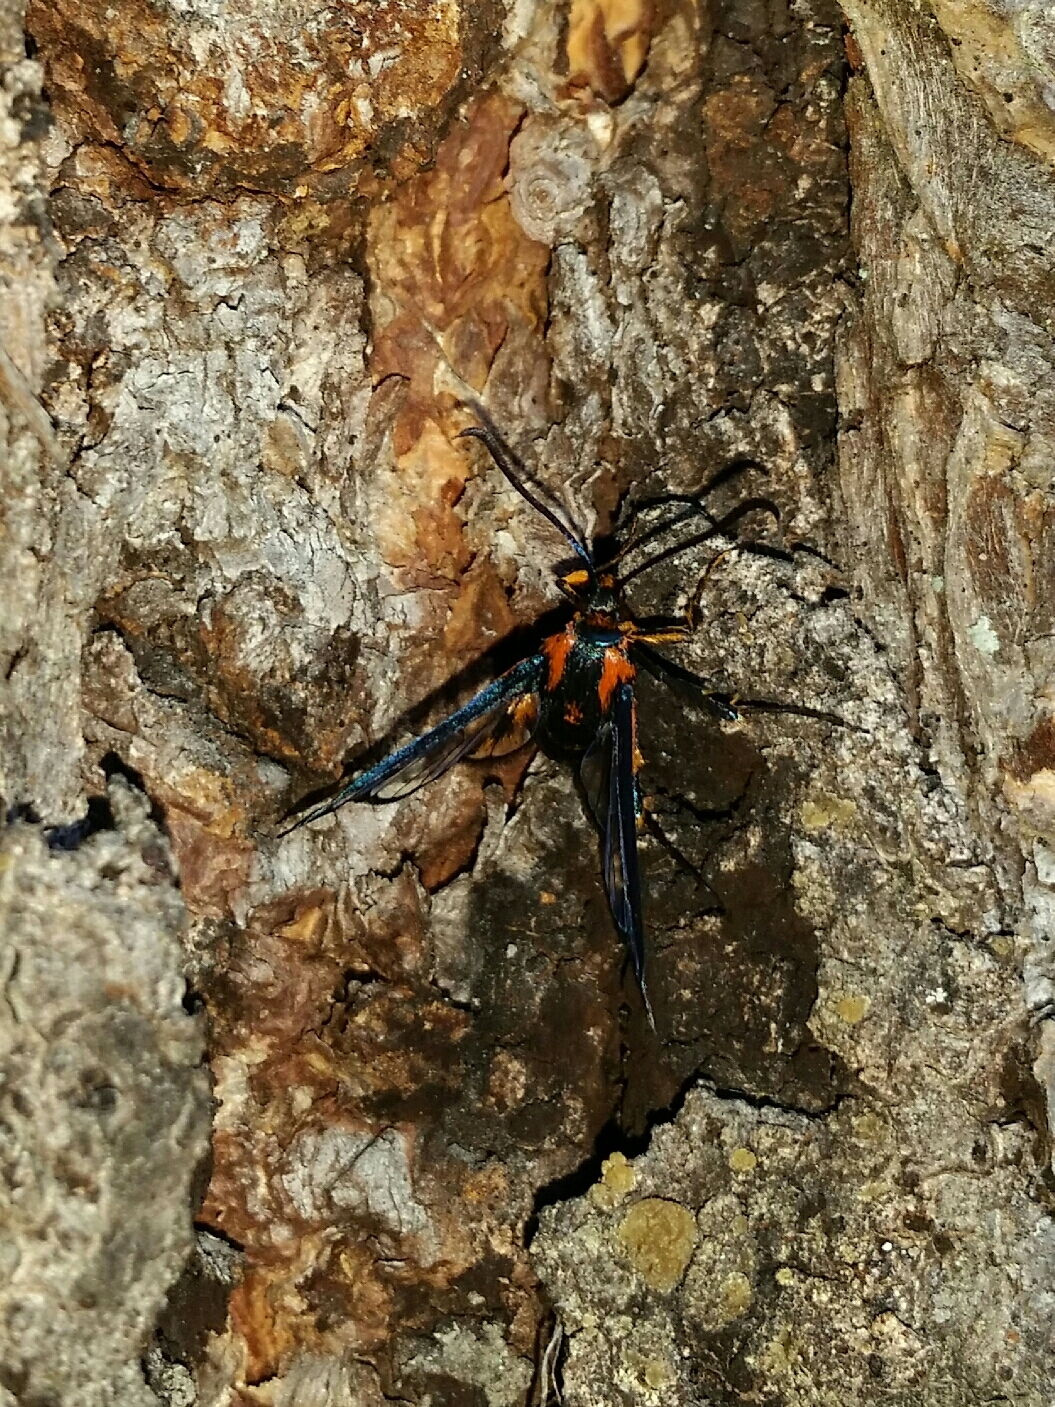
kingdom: Animalia
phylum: Arthropoda
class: Insecta
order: Lepidoptera
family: Sesiidae
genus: Synanthedon
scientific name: Synanthedon novaroensis
